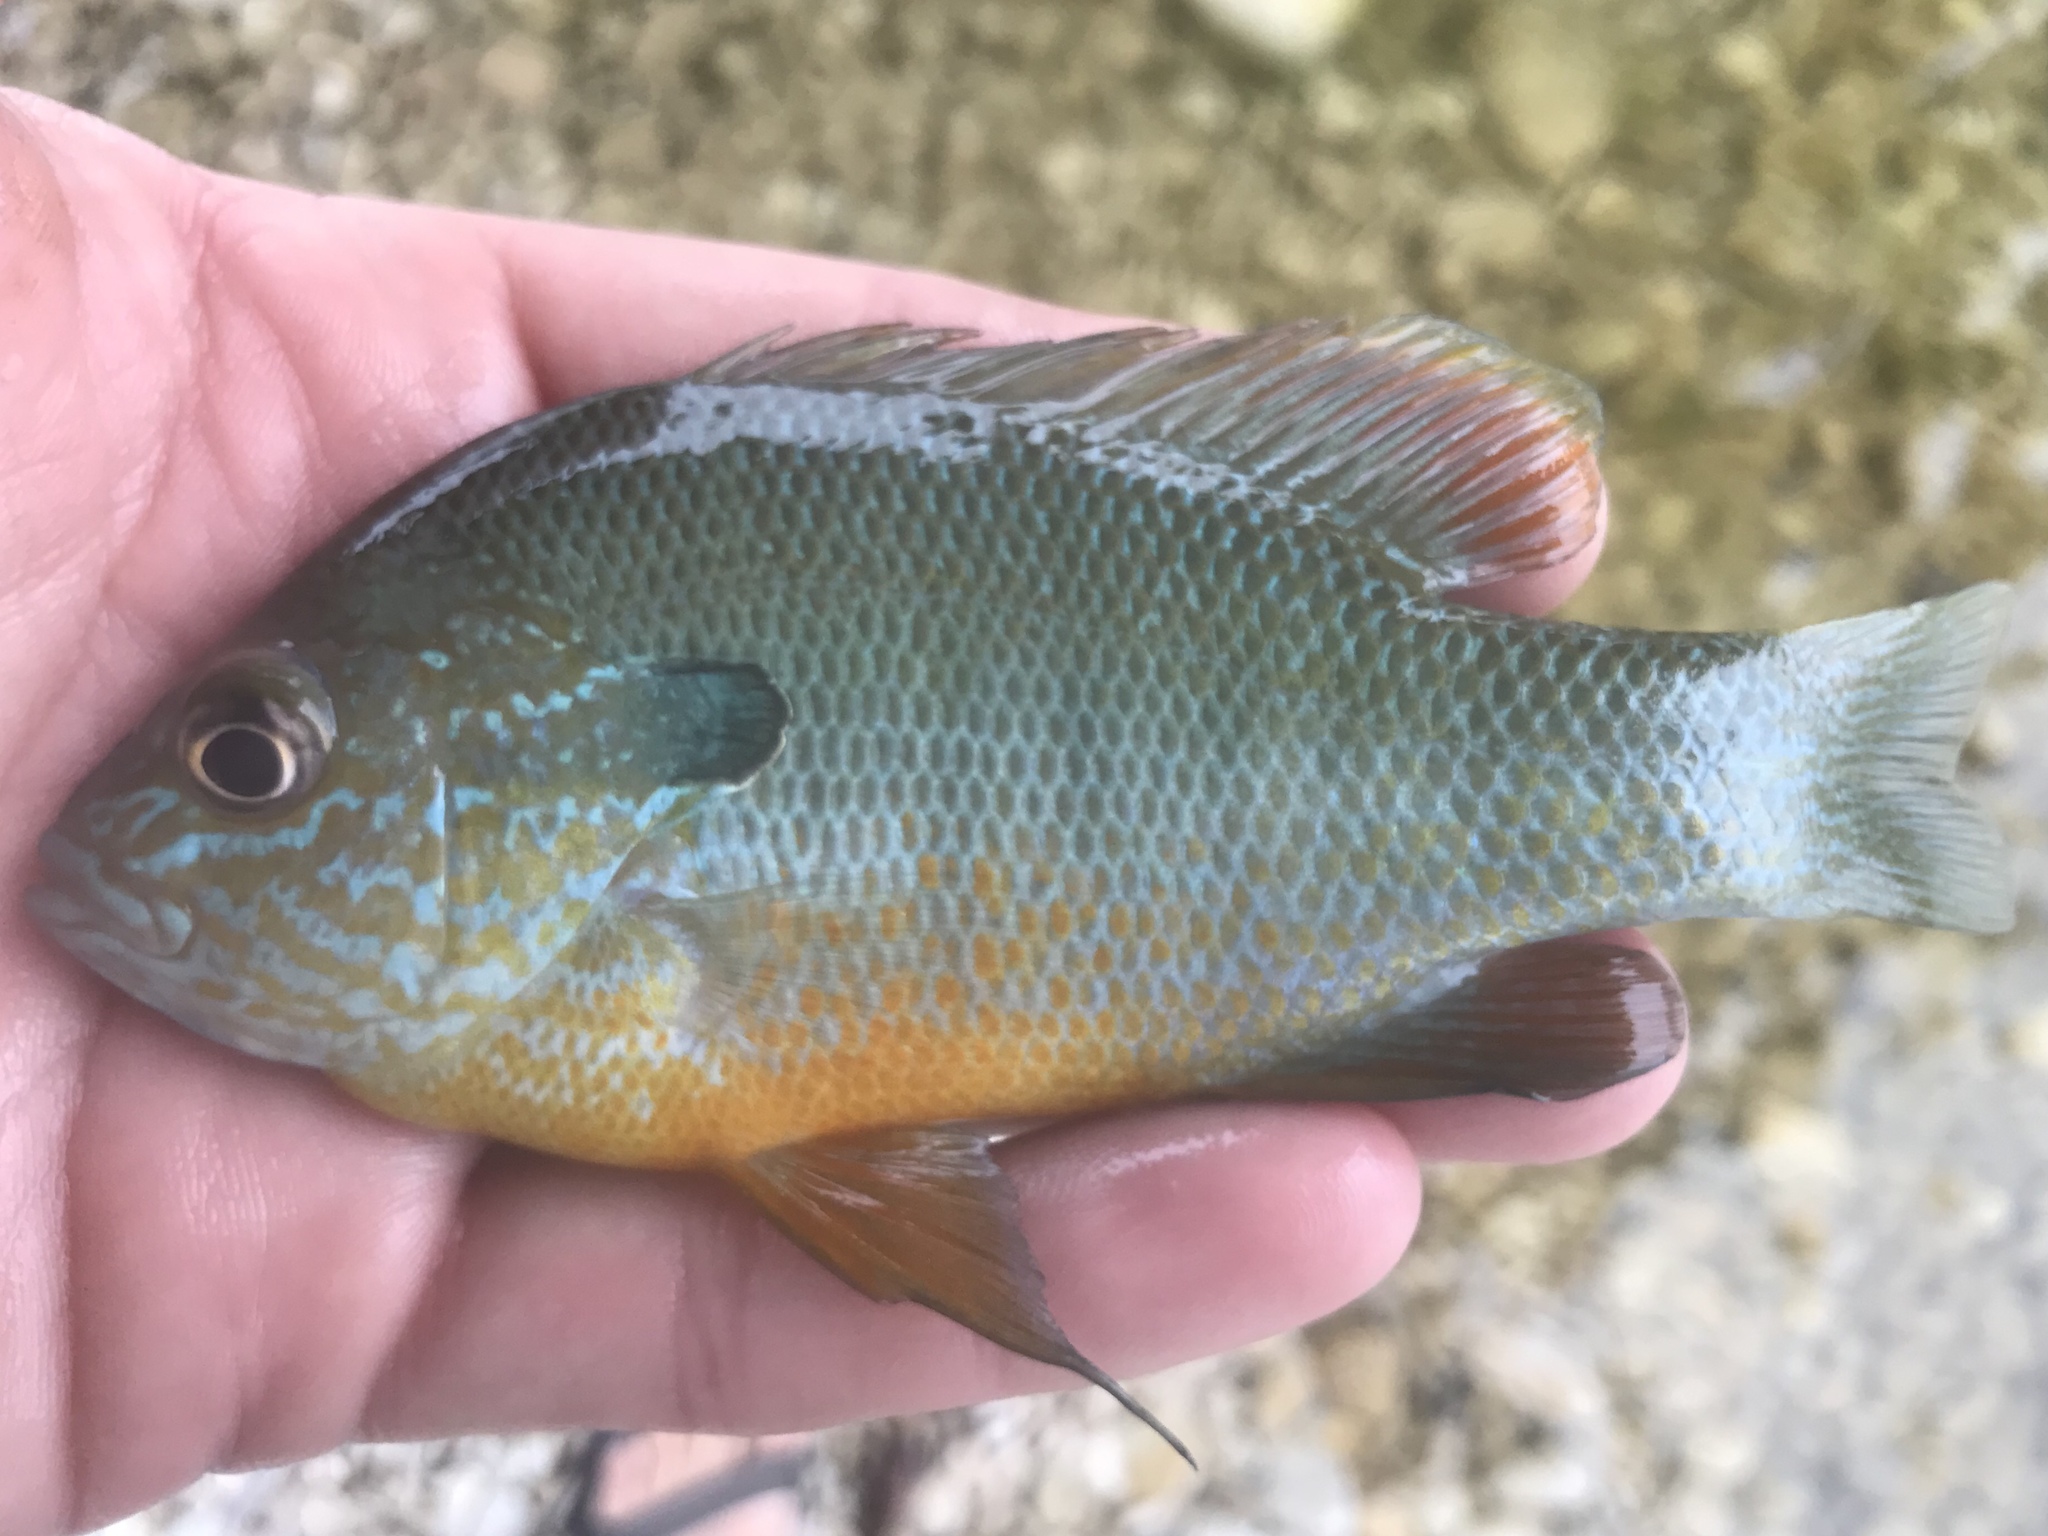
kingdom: Animalia
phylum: Chordata
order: Perciformes
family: Centrarchidae
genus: Lepomis
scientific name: Lepomis megalotis
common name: Longear sunfish
